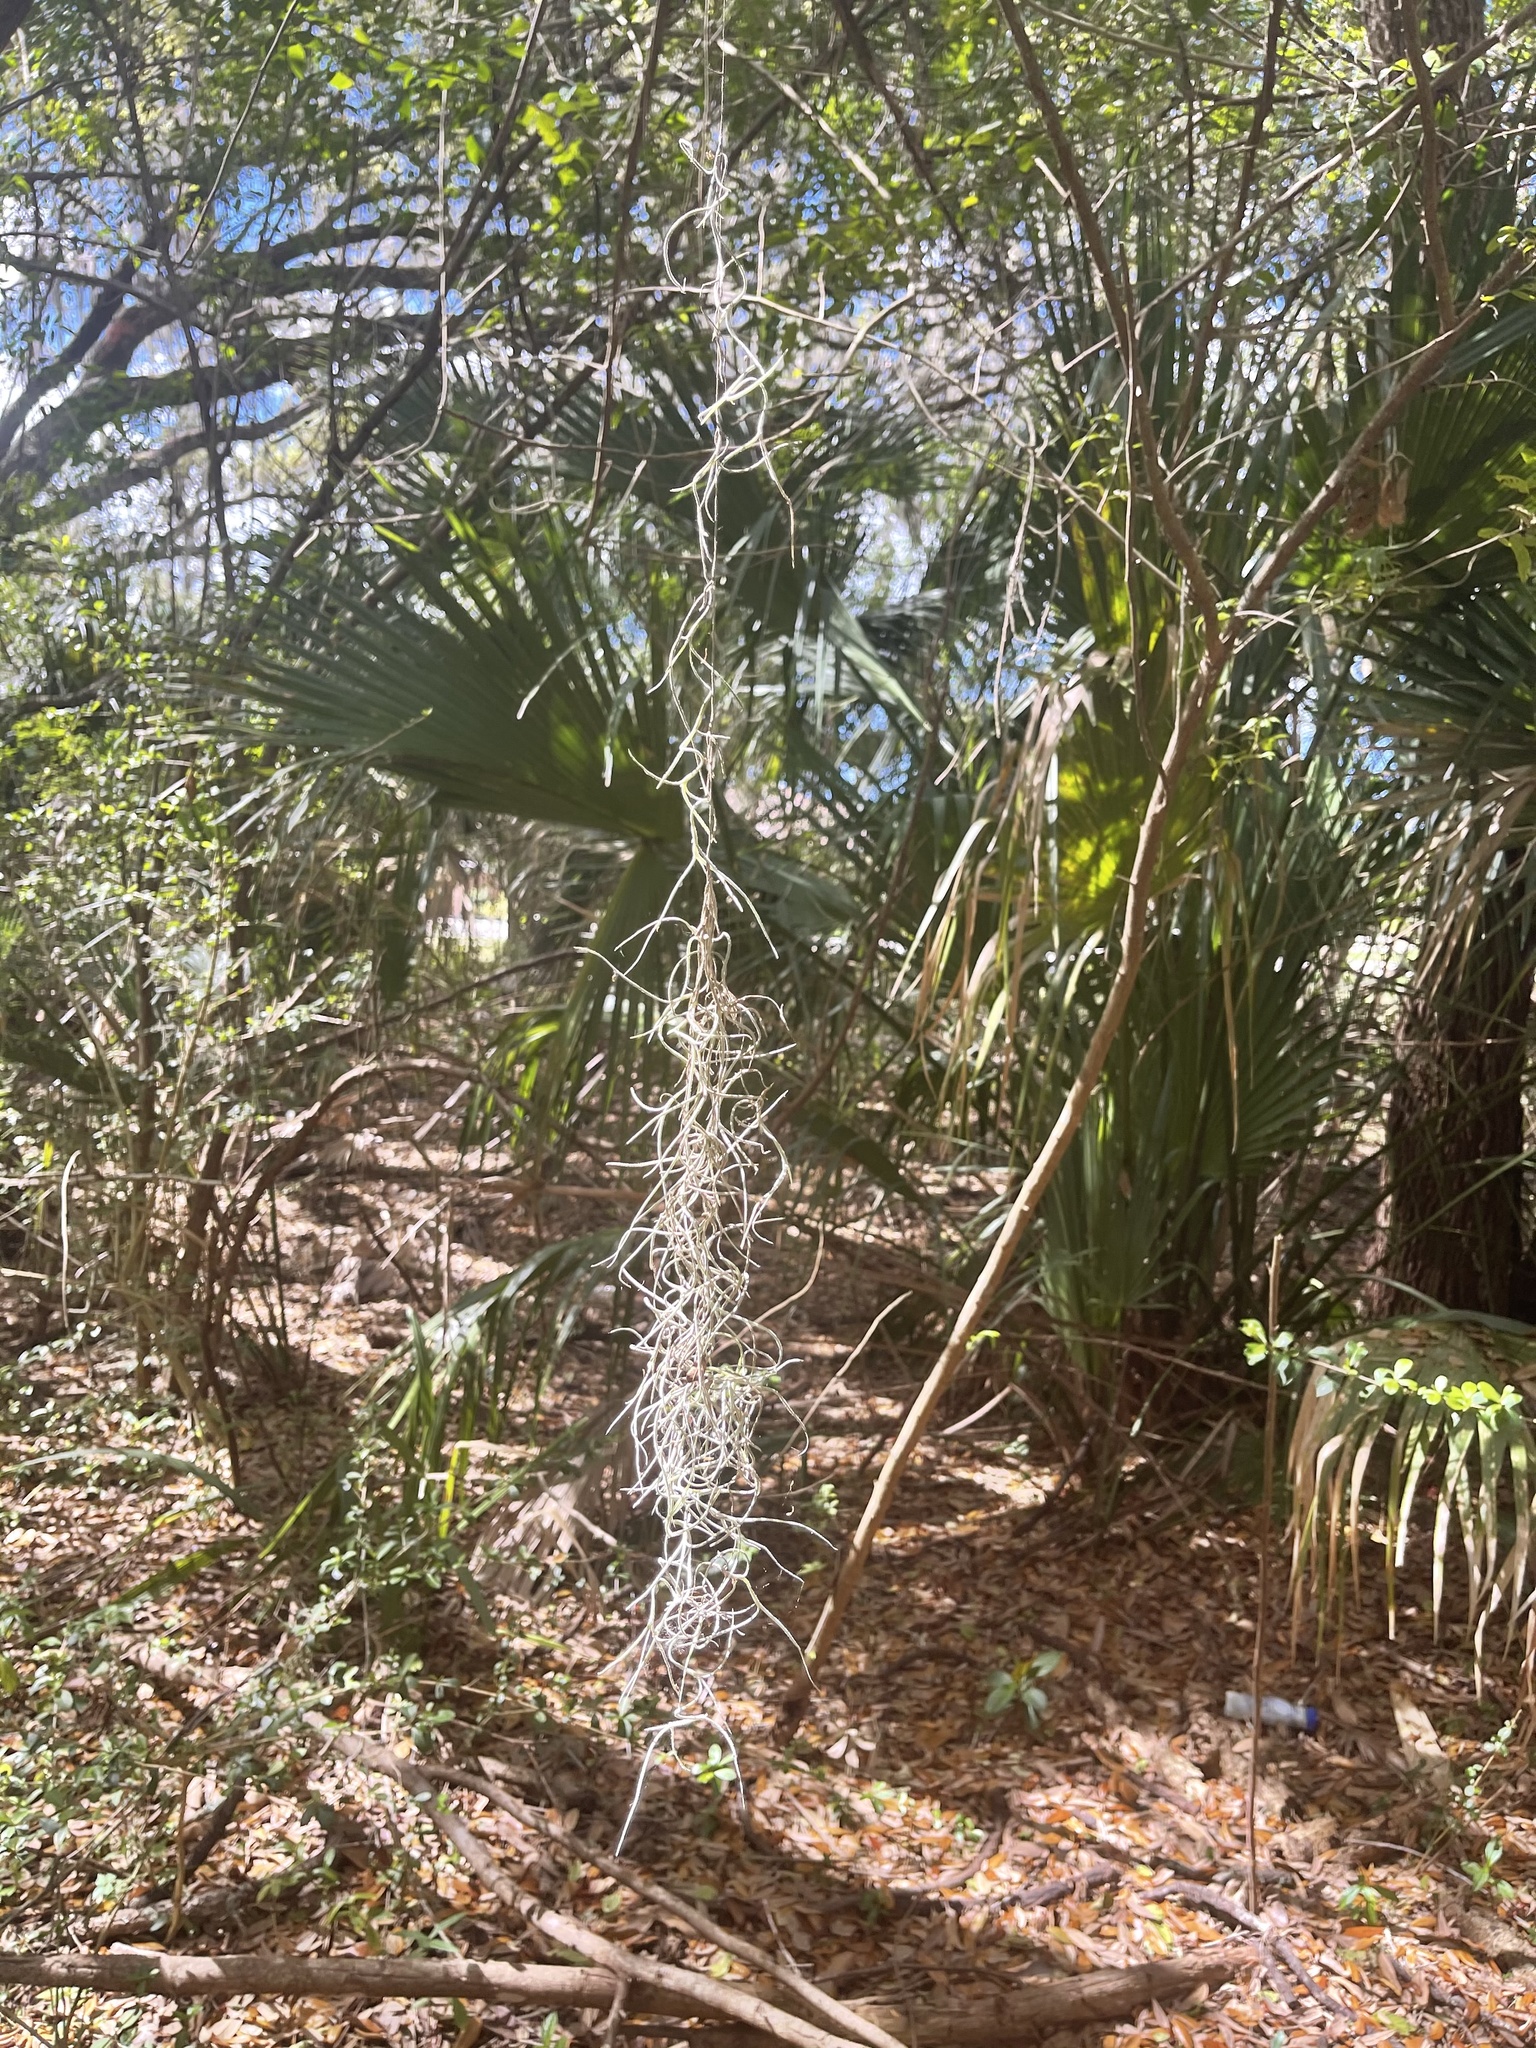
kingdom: Plantae
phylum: Tracheophyta
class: Liliopsida
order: Poales
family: Bromeliaceae
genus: Tillandsia
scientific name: Tillandsia usneoides
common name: Spanish moss
